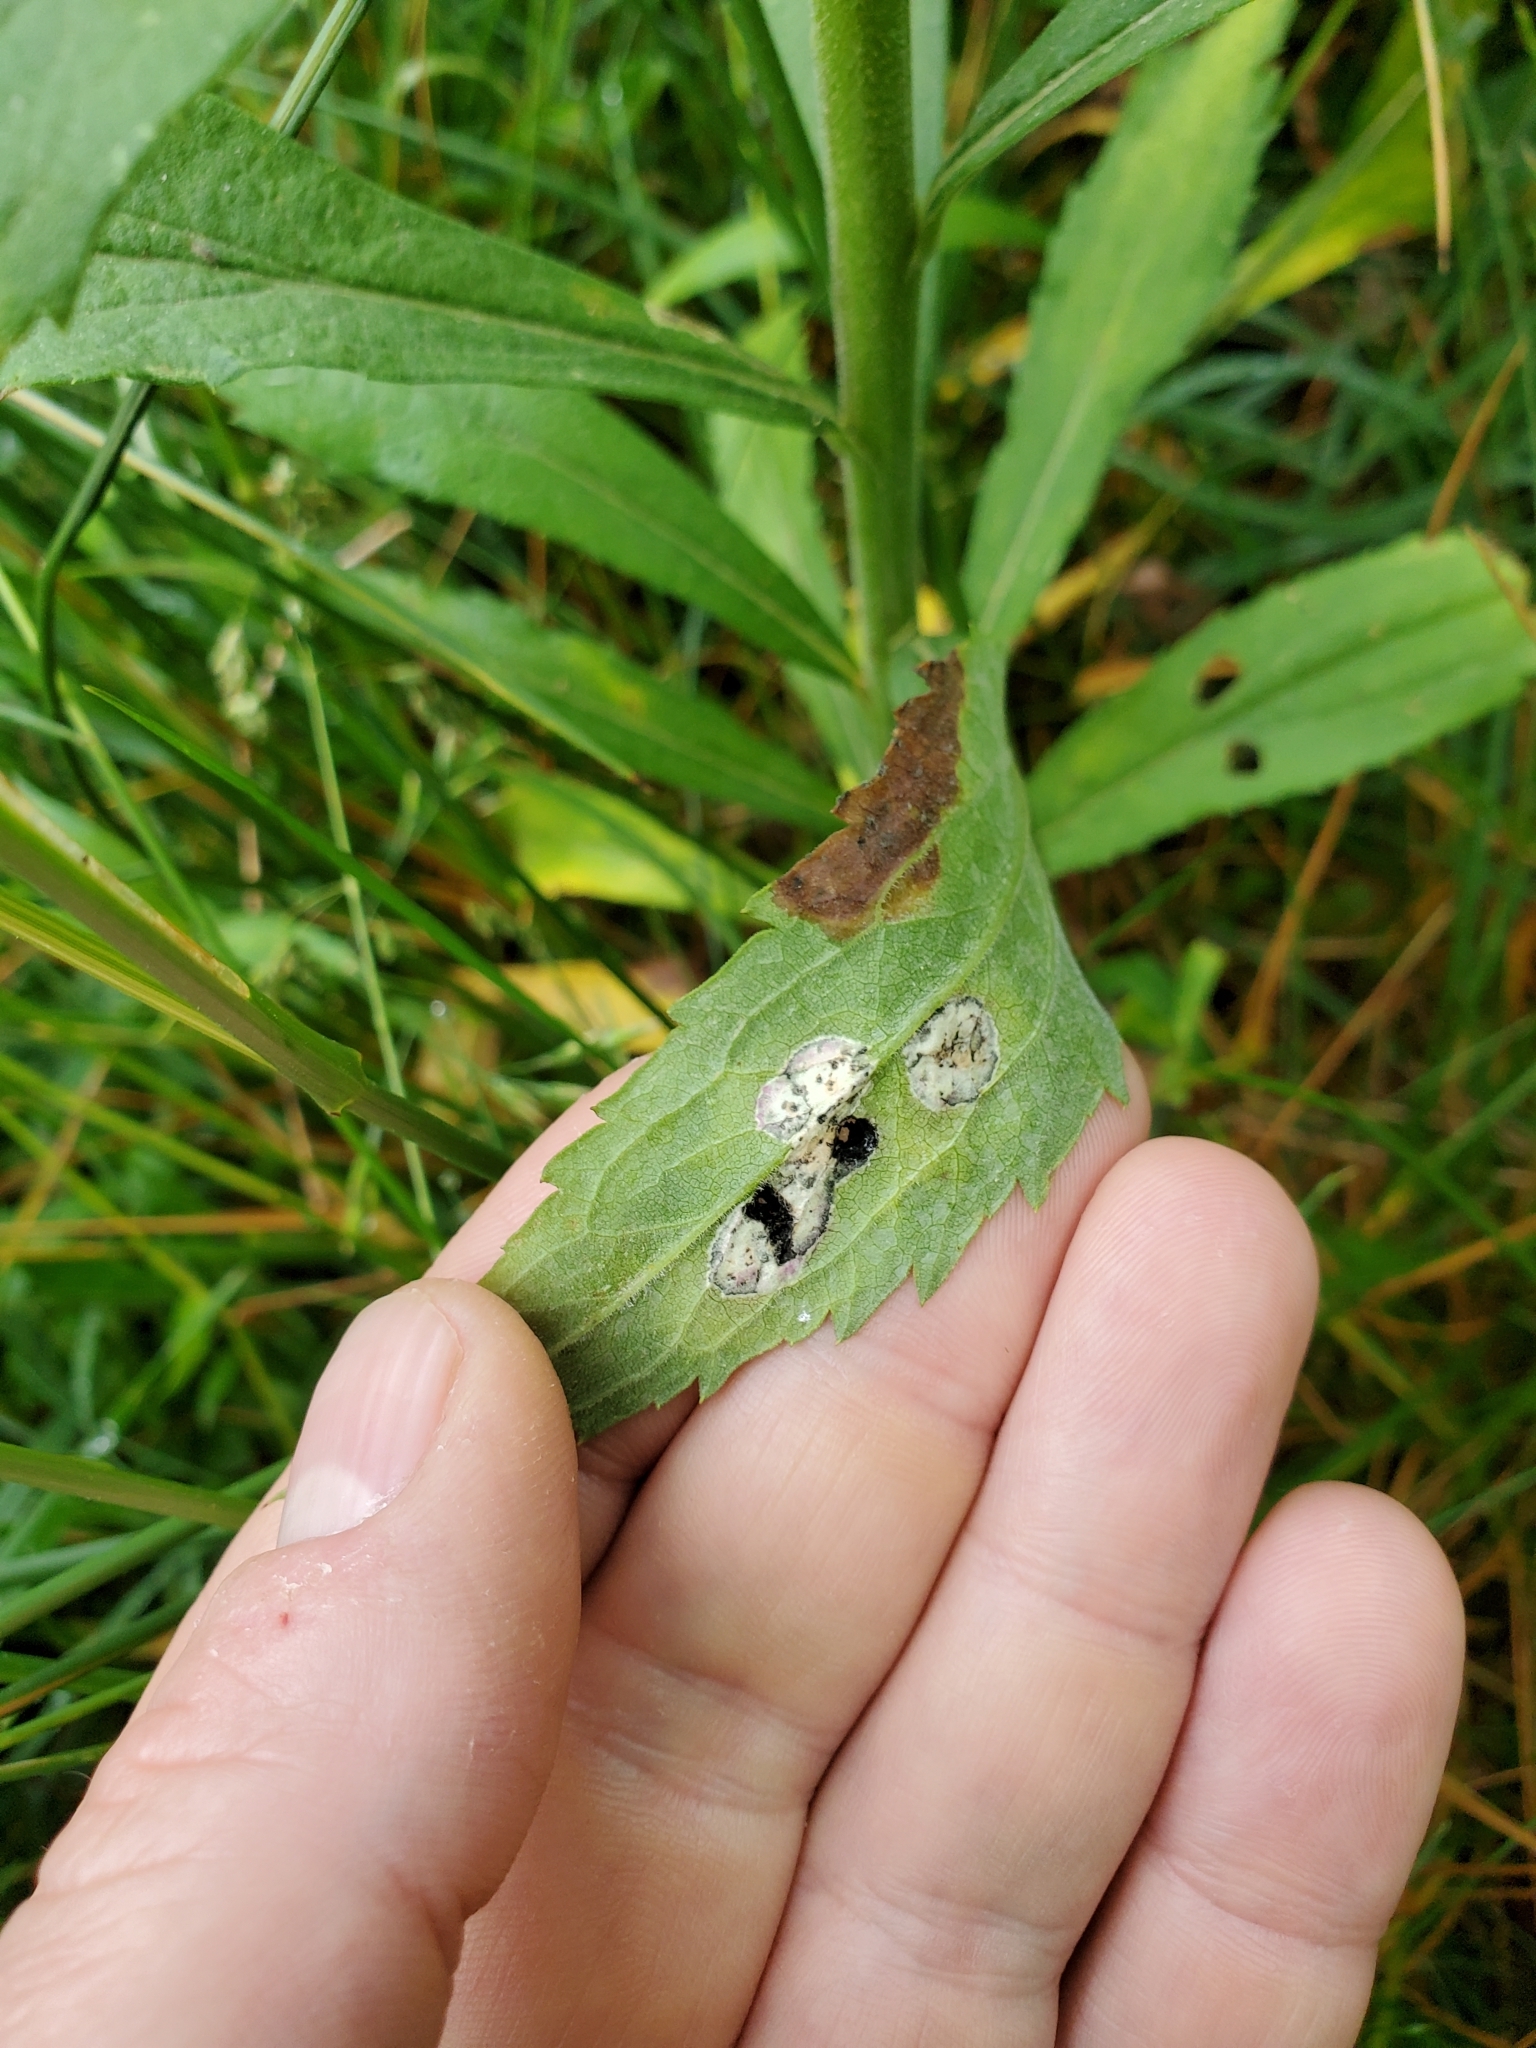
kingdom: Animalia
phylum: Arthropoda
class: Insecta
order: Diptera
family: Cecidomyiidae
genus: Asteromyia
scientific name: Asteromyia carbonifera
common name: Carbonifera goldenrod gall midge
